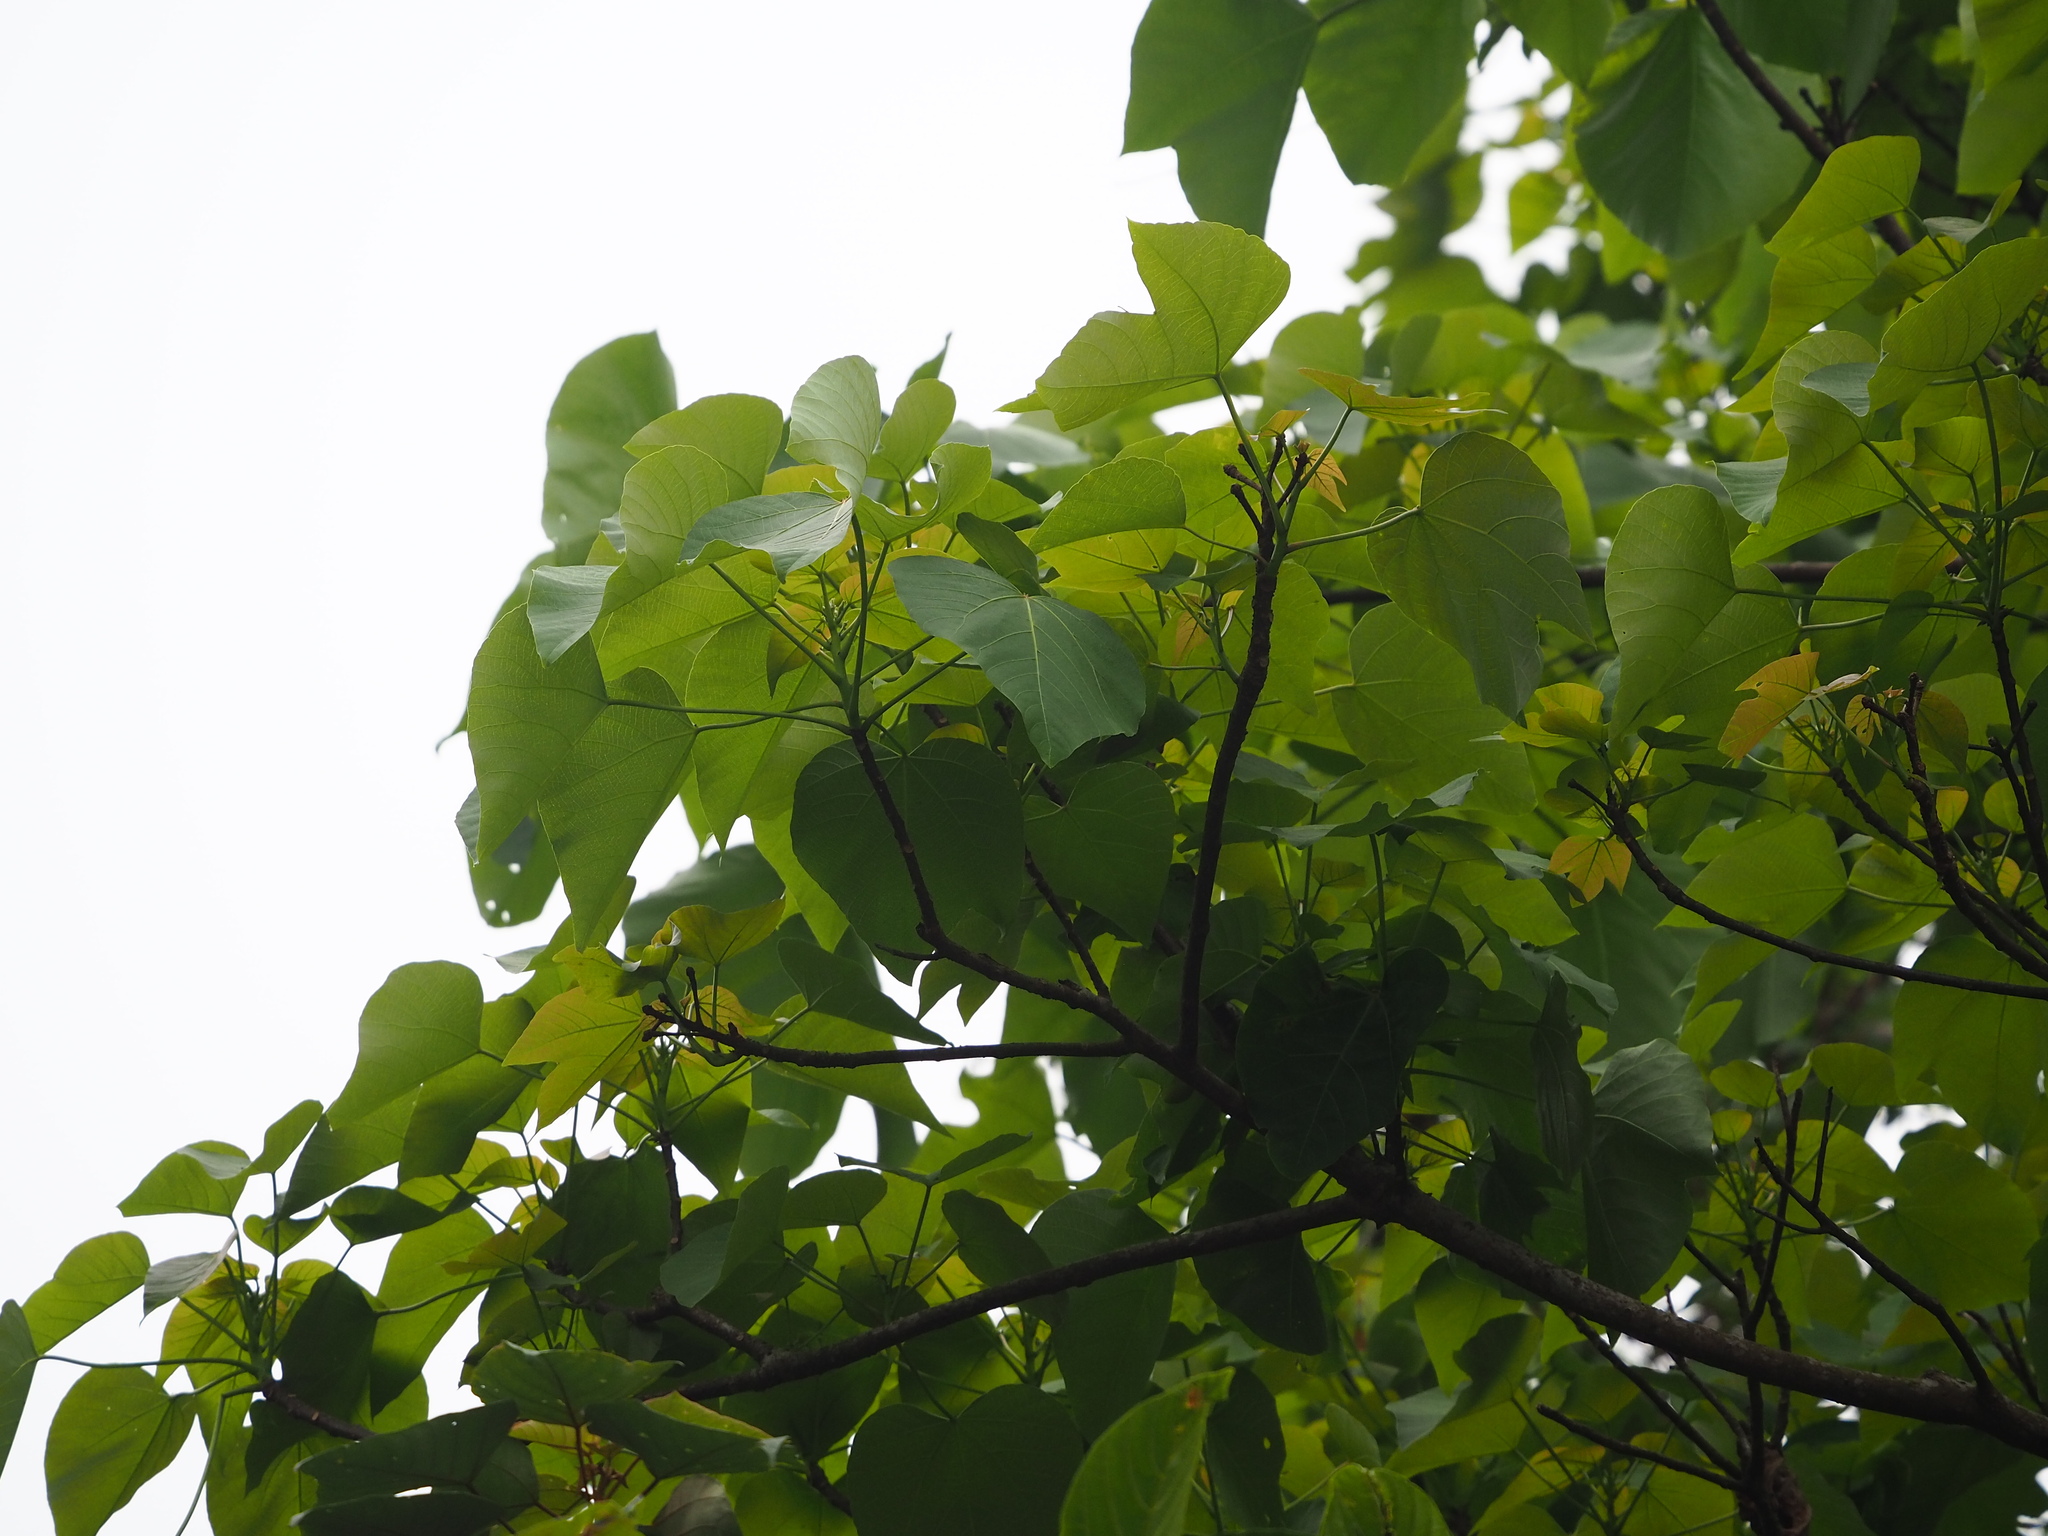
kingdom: Plantae
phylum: Tracheophyta
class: Magnoliopsida
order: Malpighiales
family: Euphorbiaceae
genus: Vernicia
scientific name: Vernicia montana
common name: Mu oil tree
